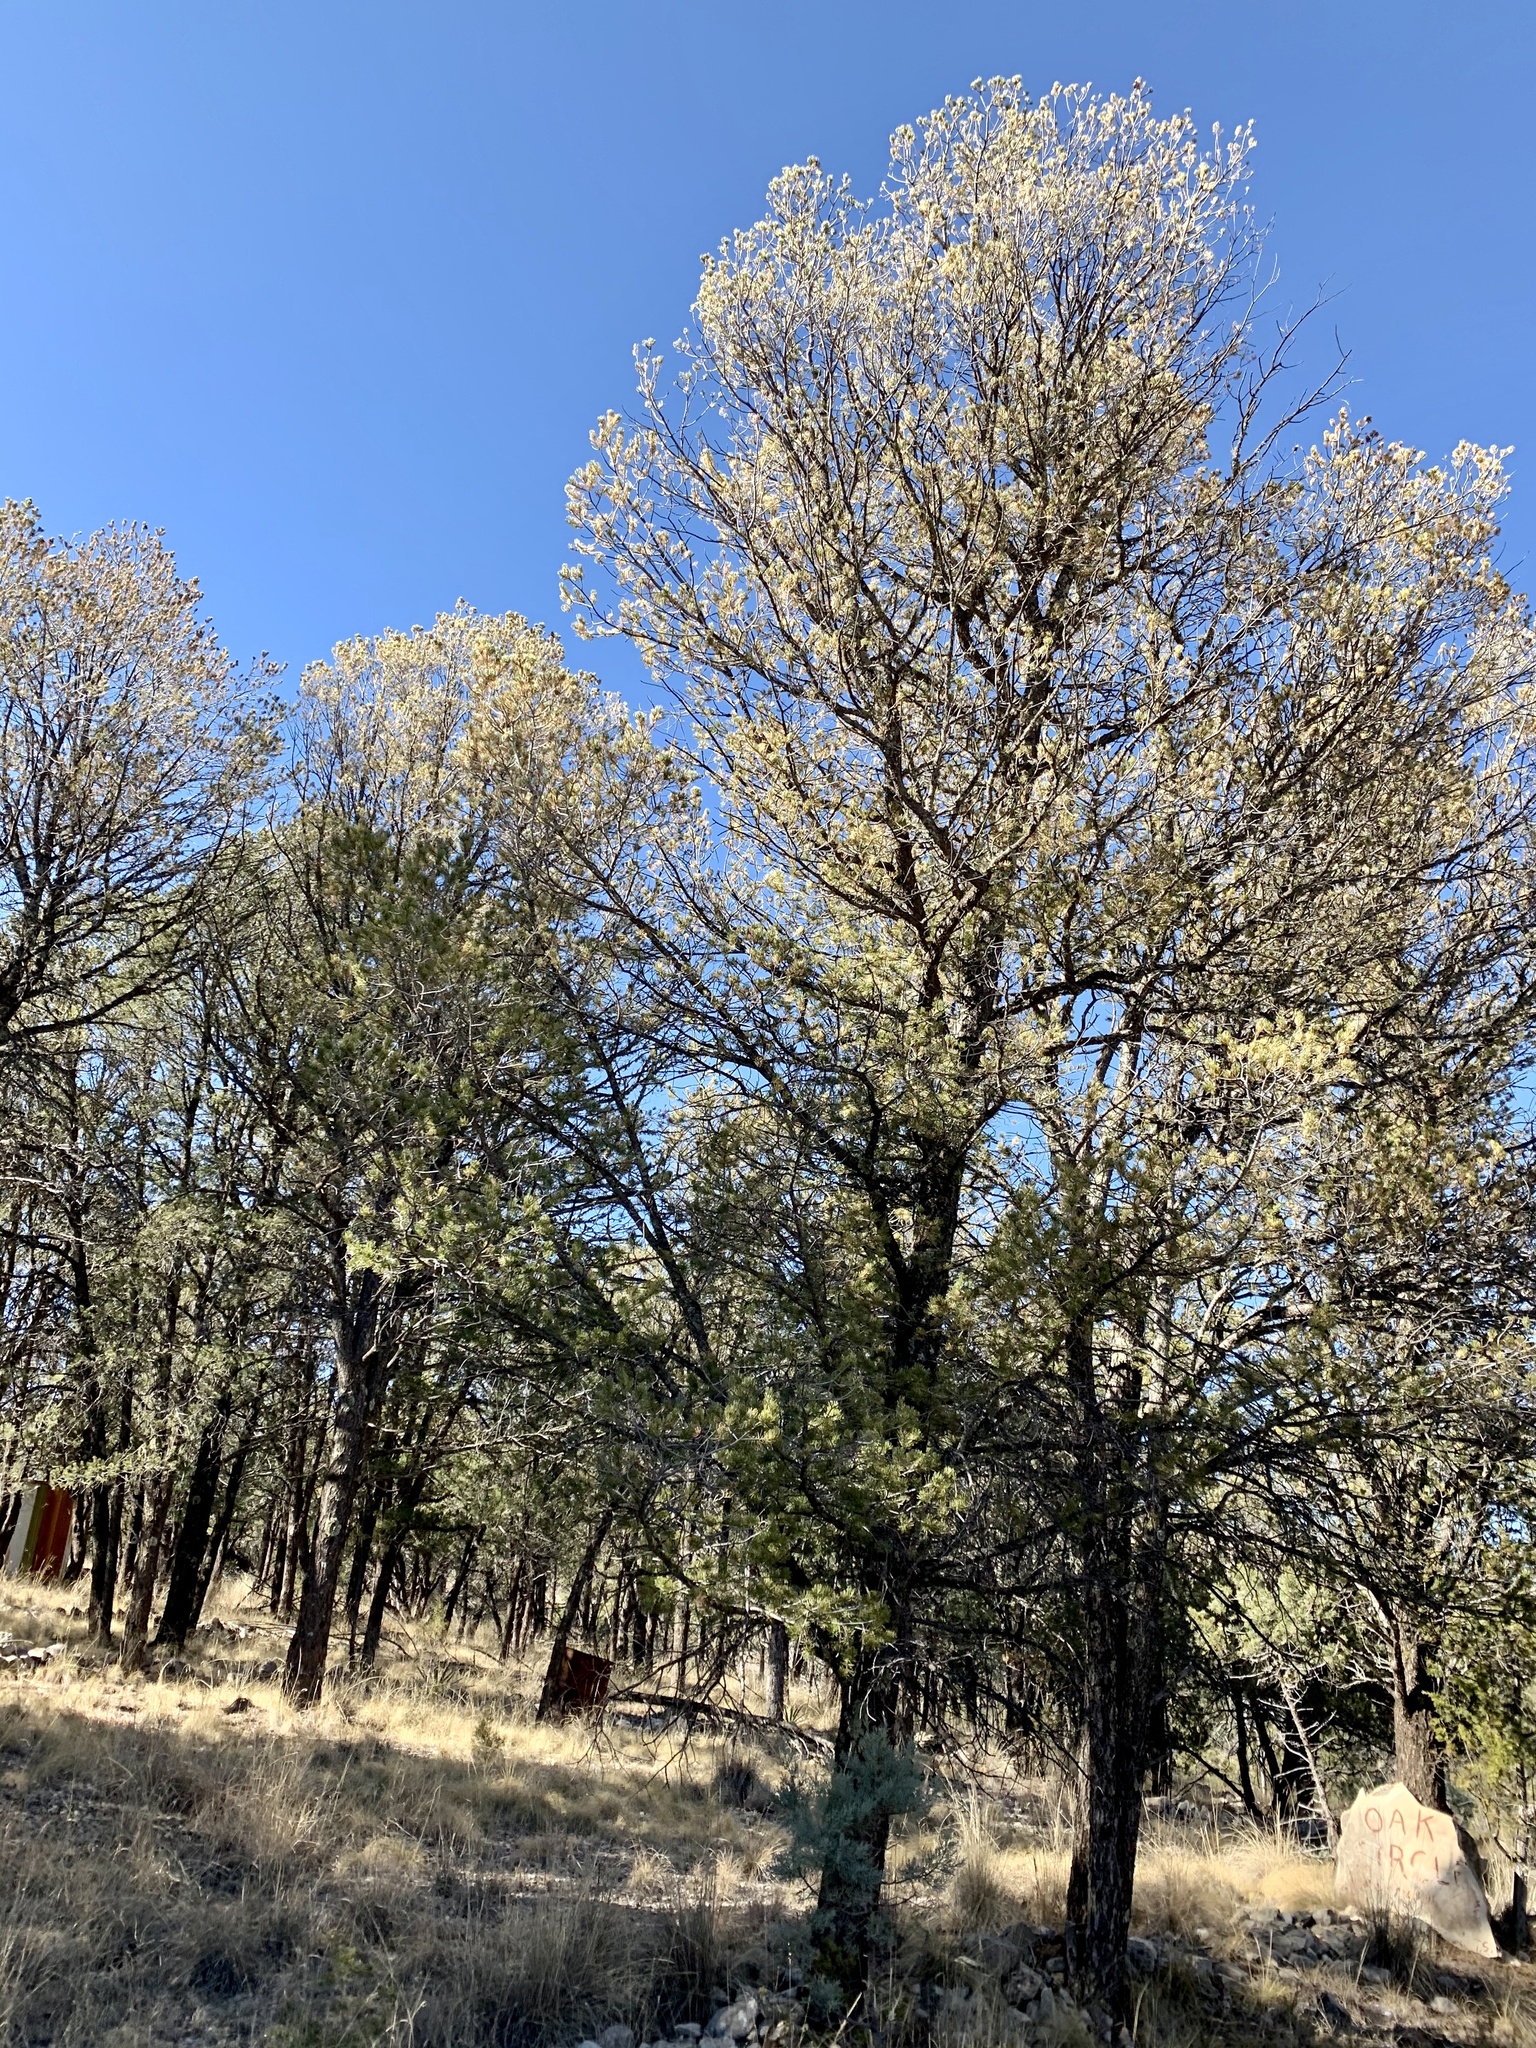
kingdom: Plantae
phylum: Tracheophyta
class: Pinopsida
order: Pinales
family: Pinaceae
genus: Pinus
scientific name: Pinus edulis
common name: Colorado pinyon
